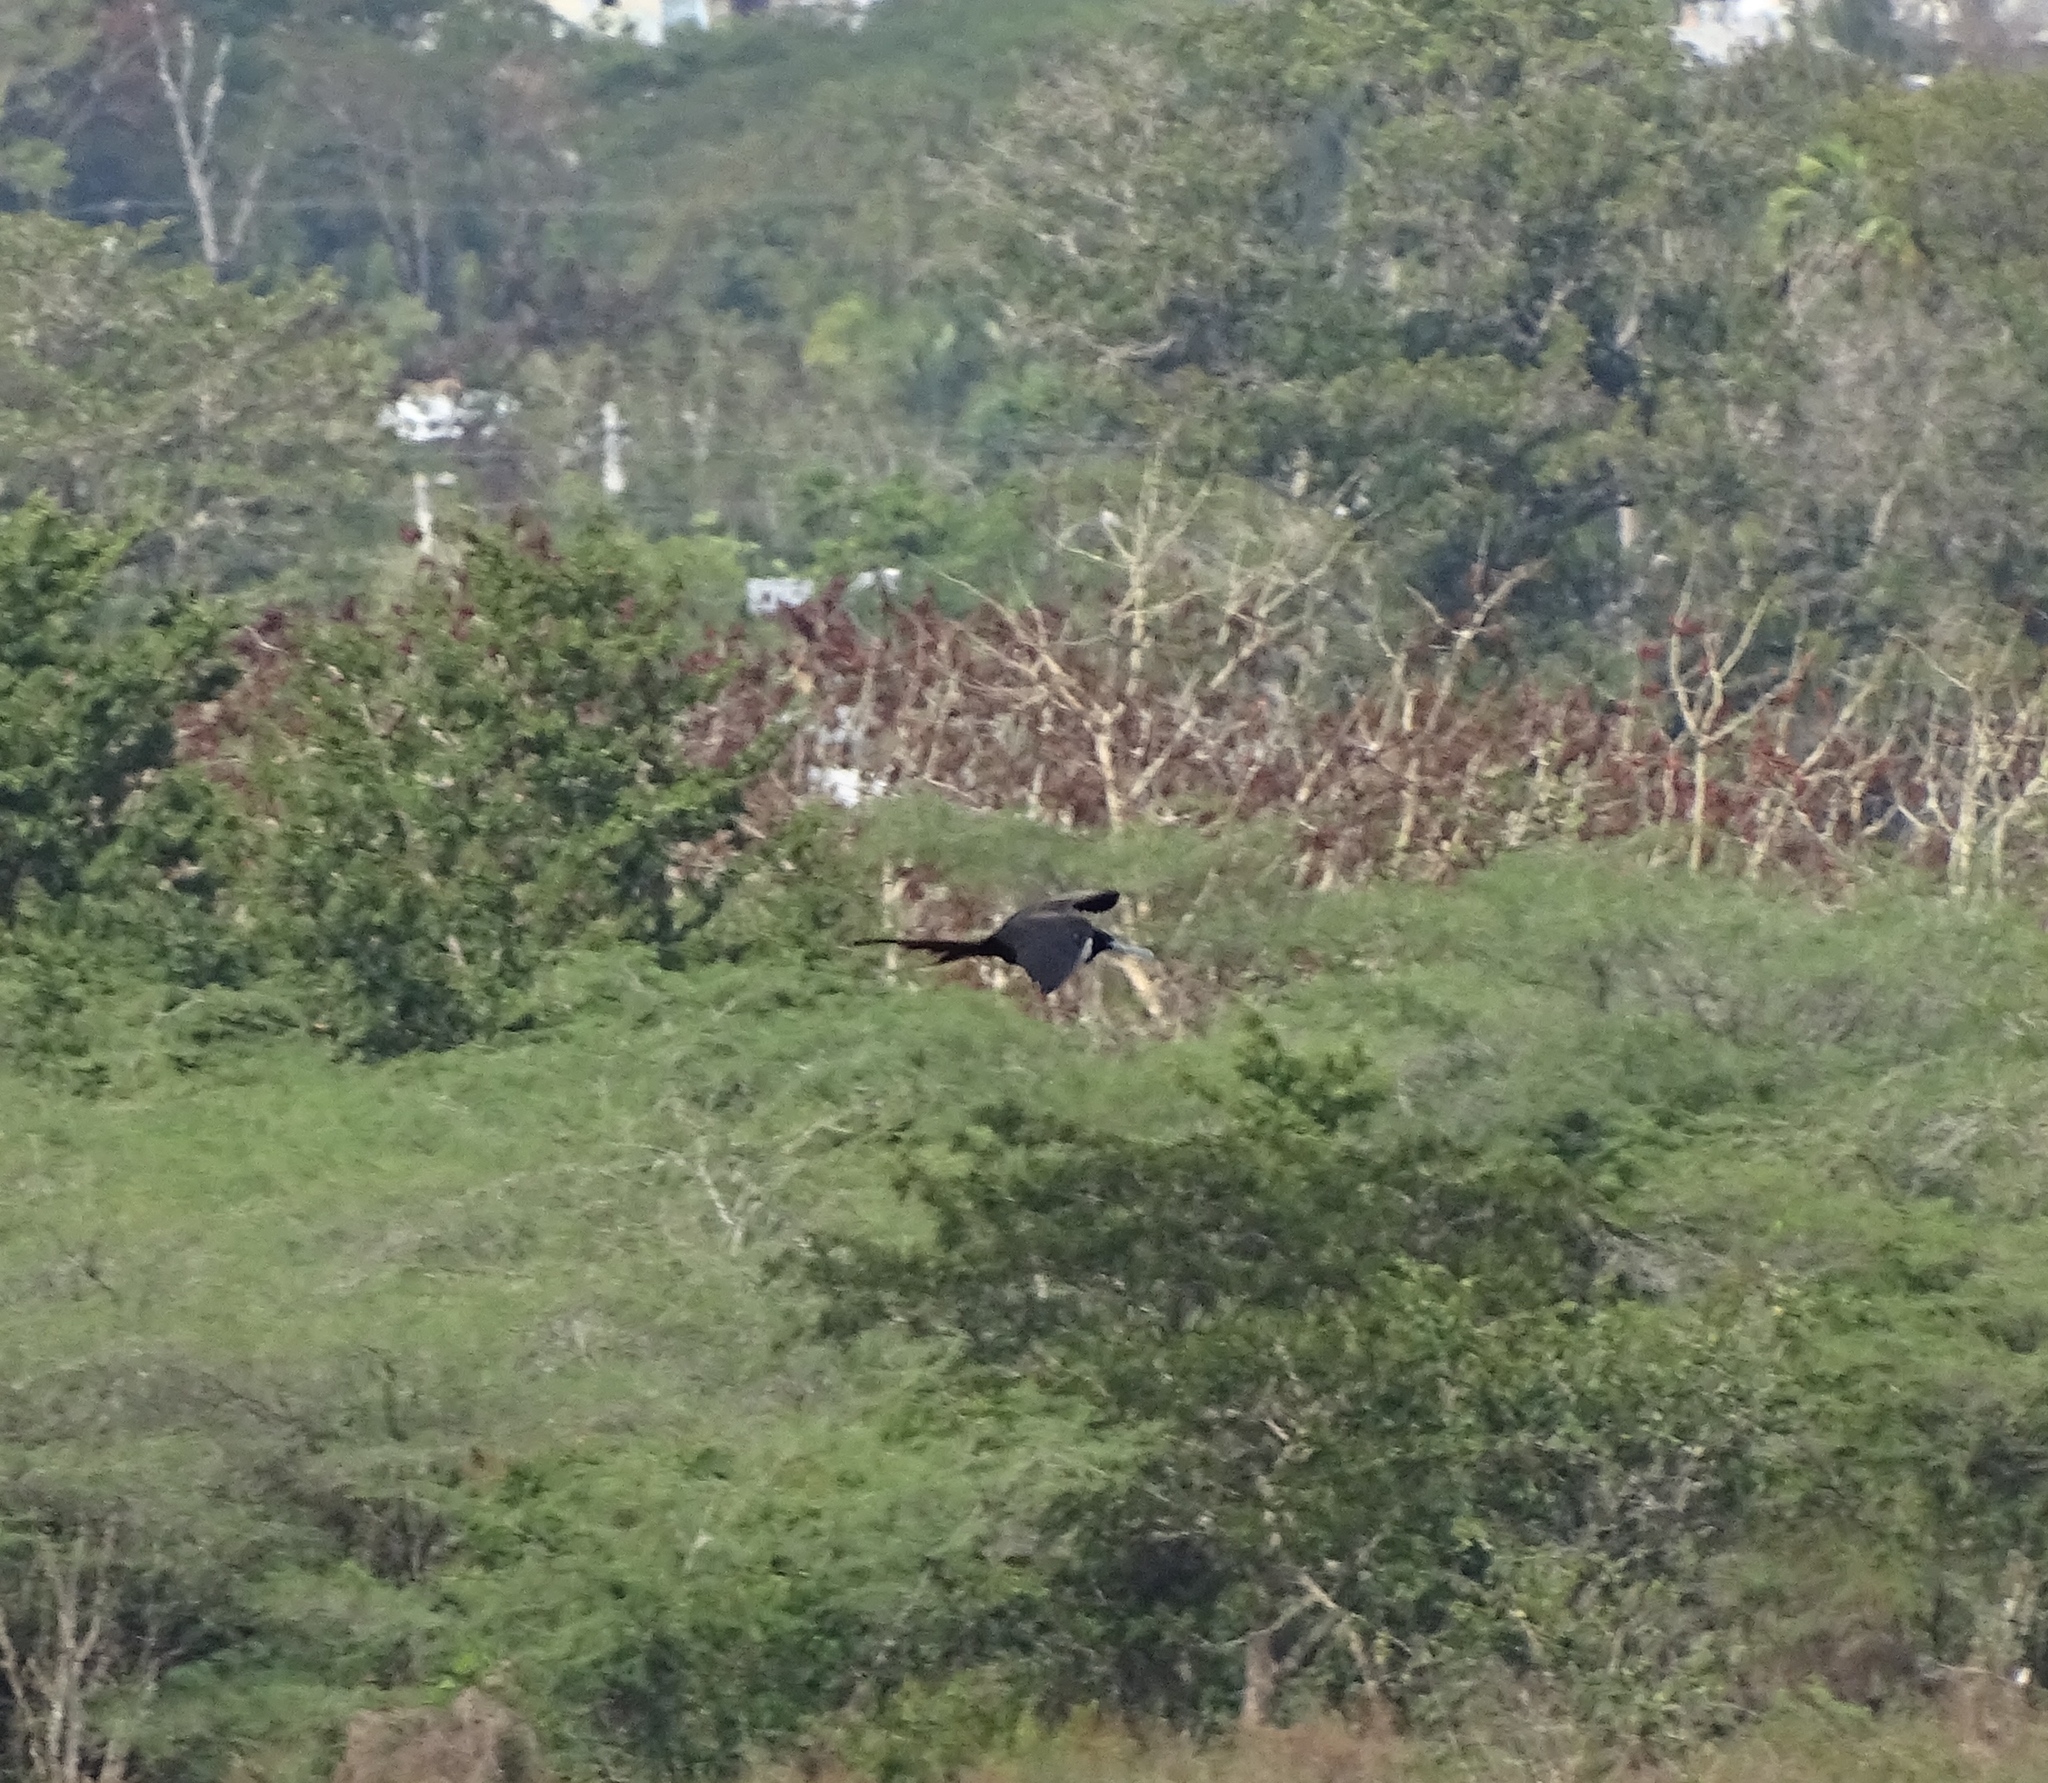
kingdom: Animalia
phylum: Chordata
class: Aves
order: Suliformes
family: Fregatidae
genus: Fregata
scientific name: Fregata magnificens
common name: Magnificent frigatebird
